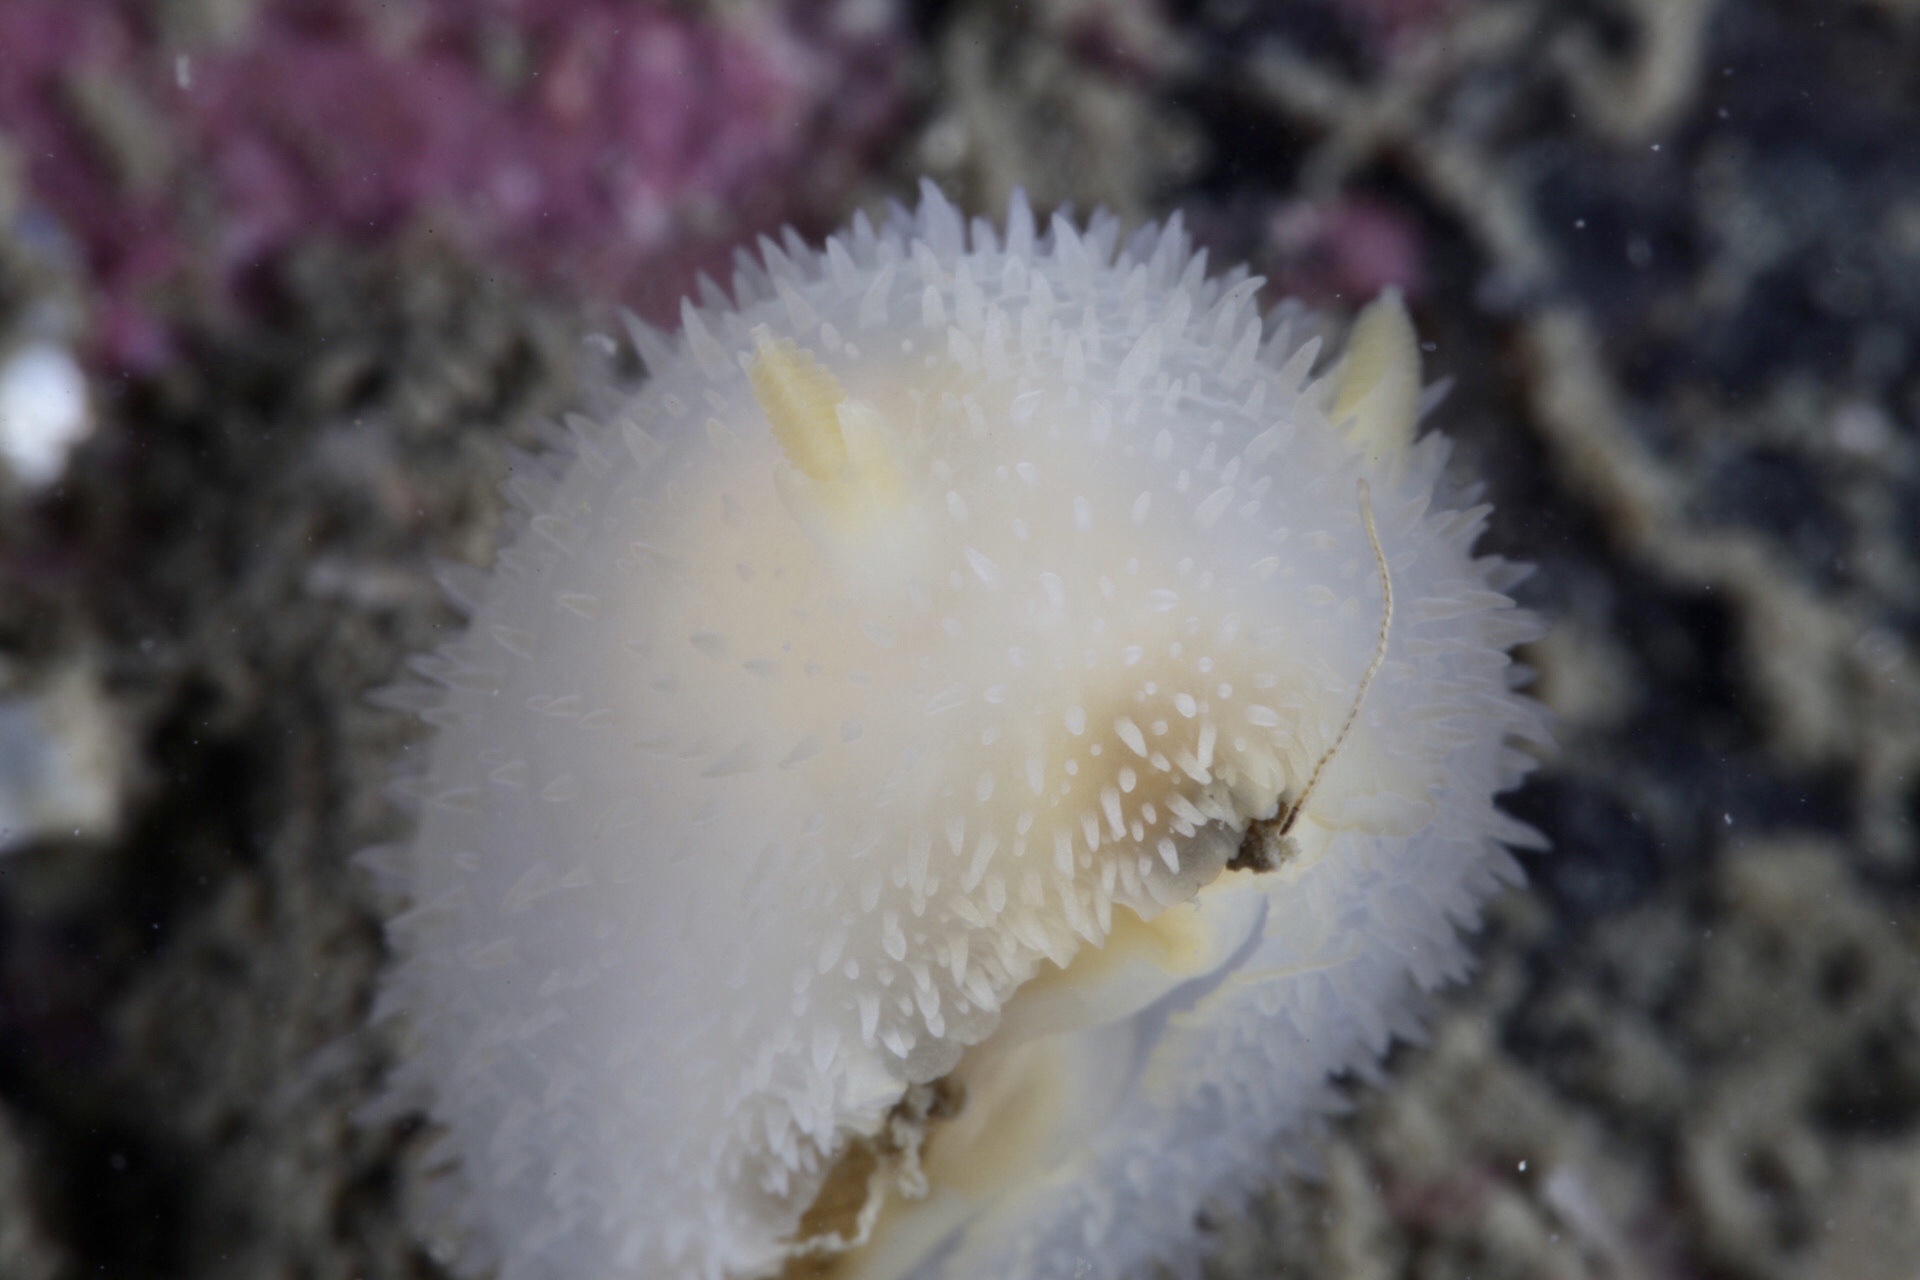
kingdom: Animalia
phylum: Mollusca
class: Gastropoda
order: Nudibranchia
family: Onchidorididae
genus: Acanthodoris
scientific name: Acanthodoris pilosa
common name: Hairy spiny doris
